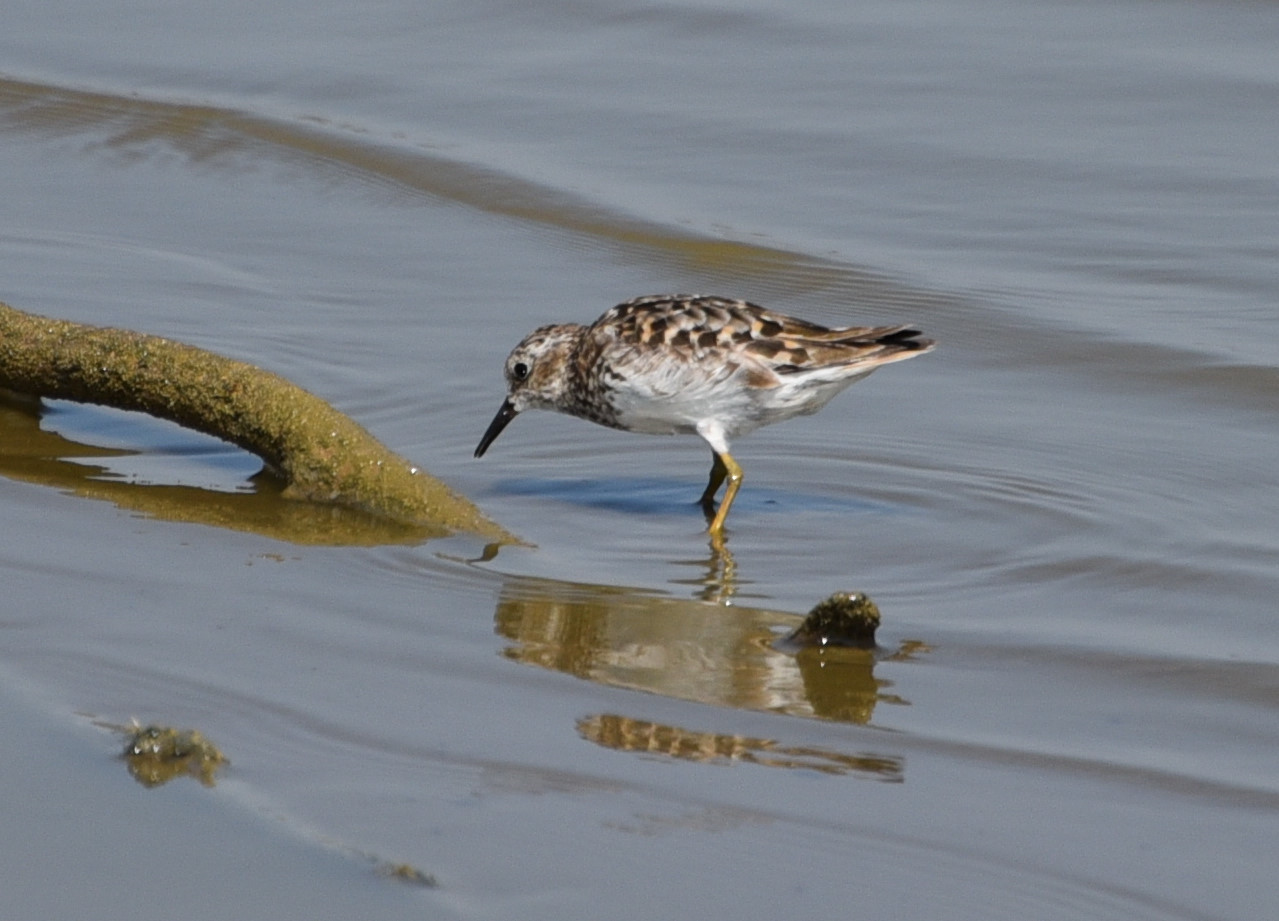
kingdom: Animalia
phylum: Chordata
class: Aves
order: Charadriiformes
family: Scolopacidae
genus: Calidris
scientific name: Calidris minutilla
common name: Least sandpiper
